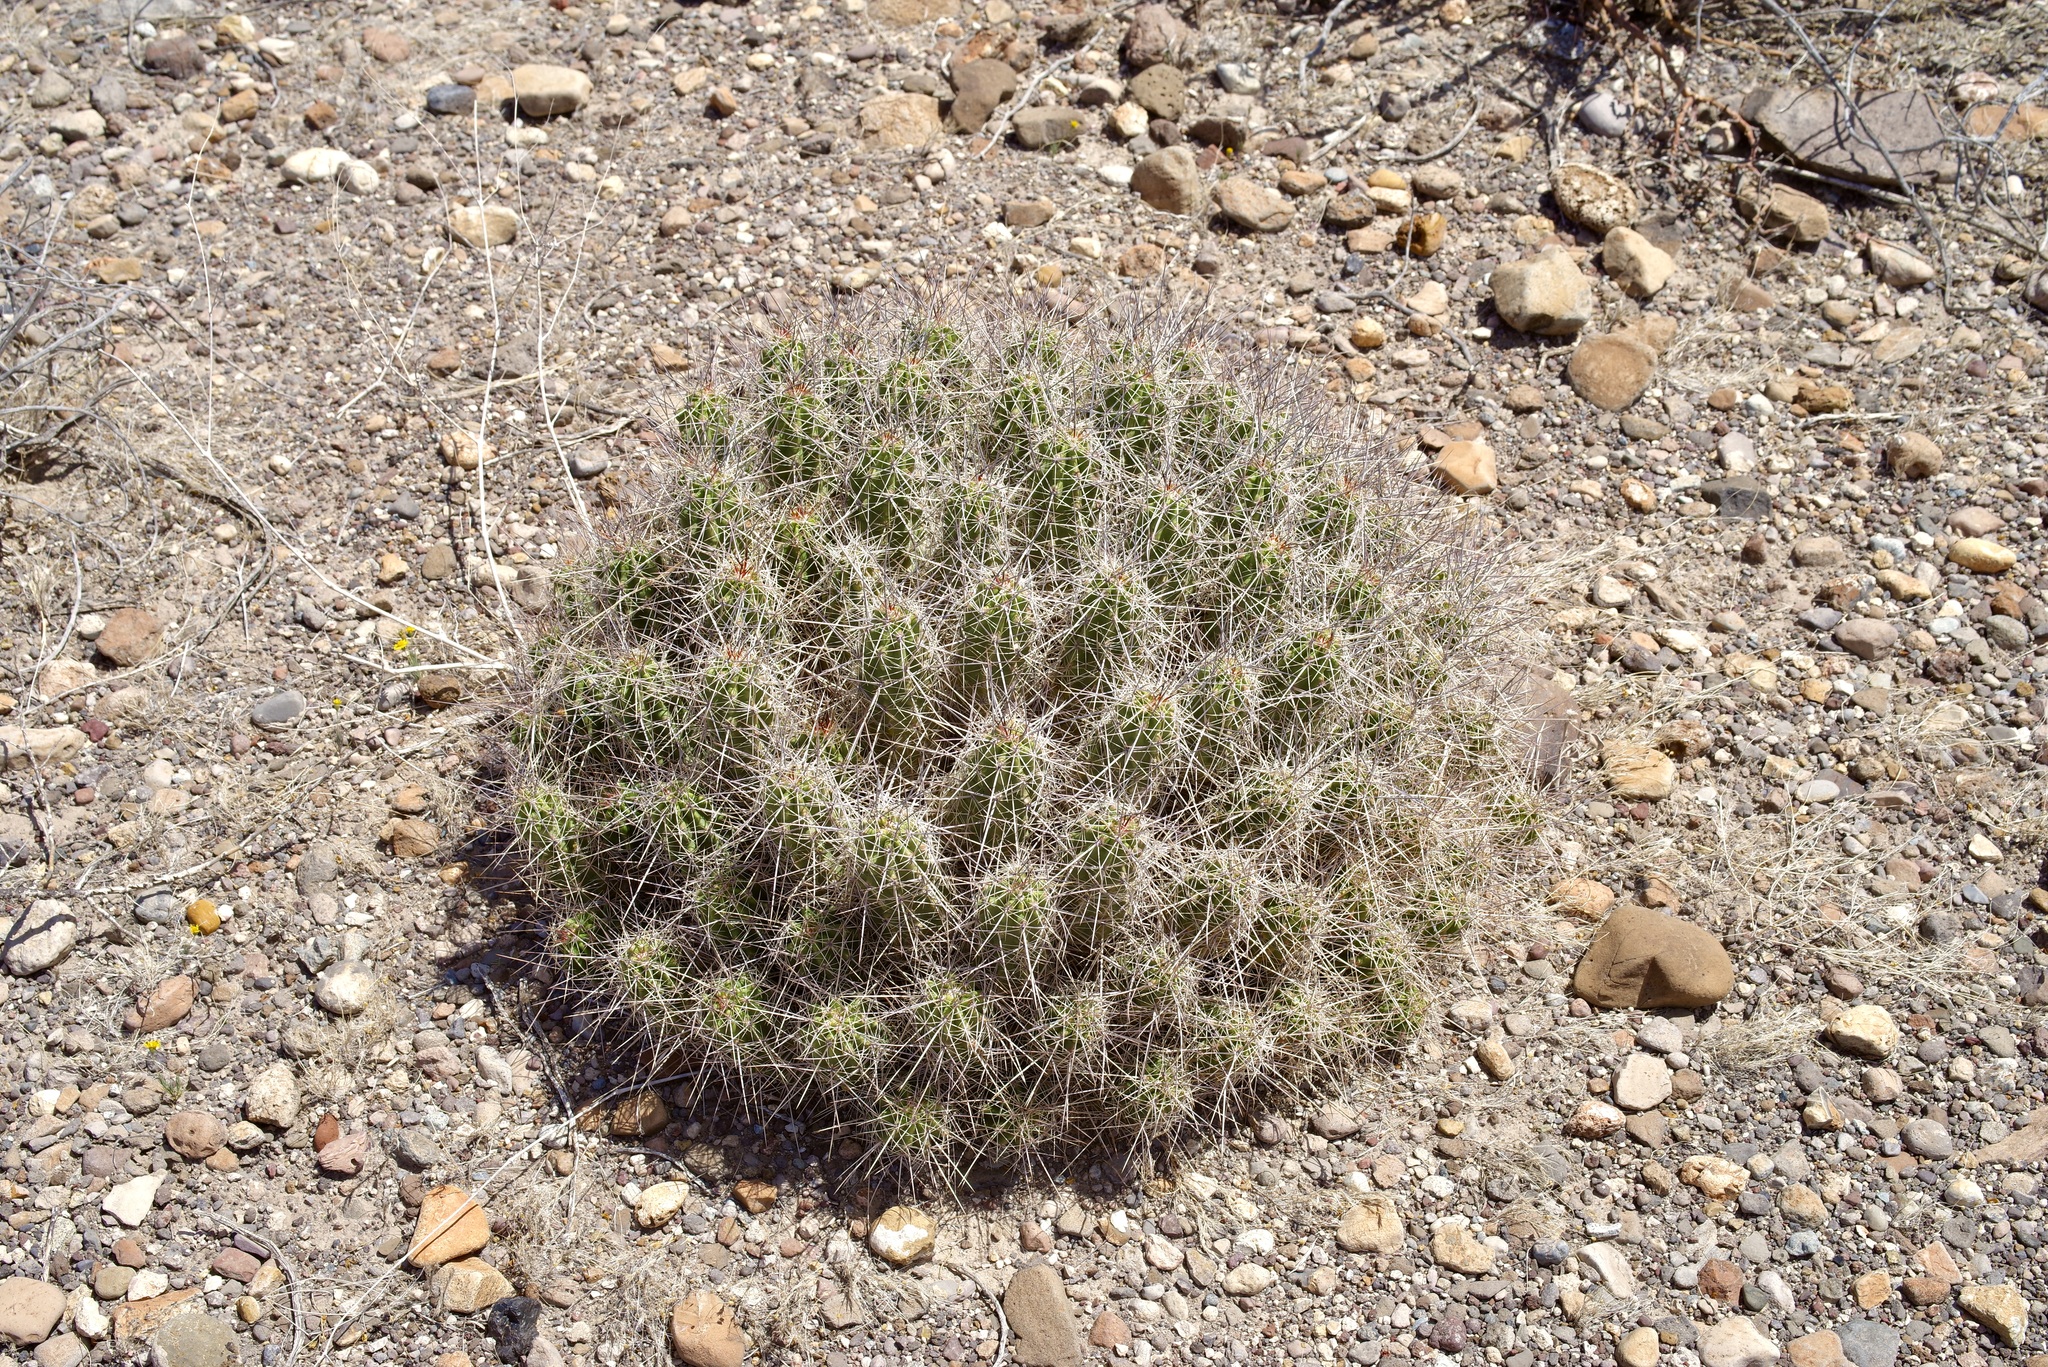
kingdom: Plantae
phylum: Tracheophyta
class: Magnoliopsida
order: Caryophyllales
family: Cactaceae
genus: Echinocereus
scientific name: Echinocereus enneacanthus
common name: Pitaya
